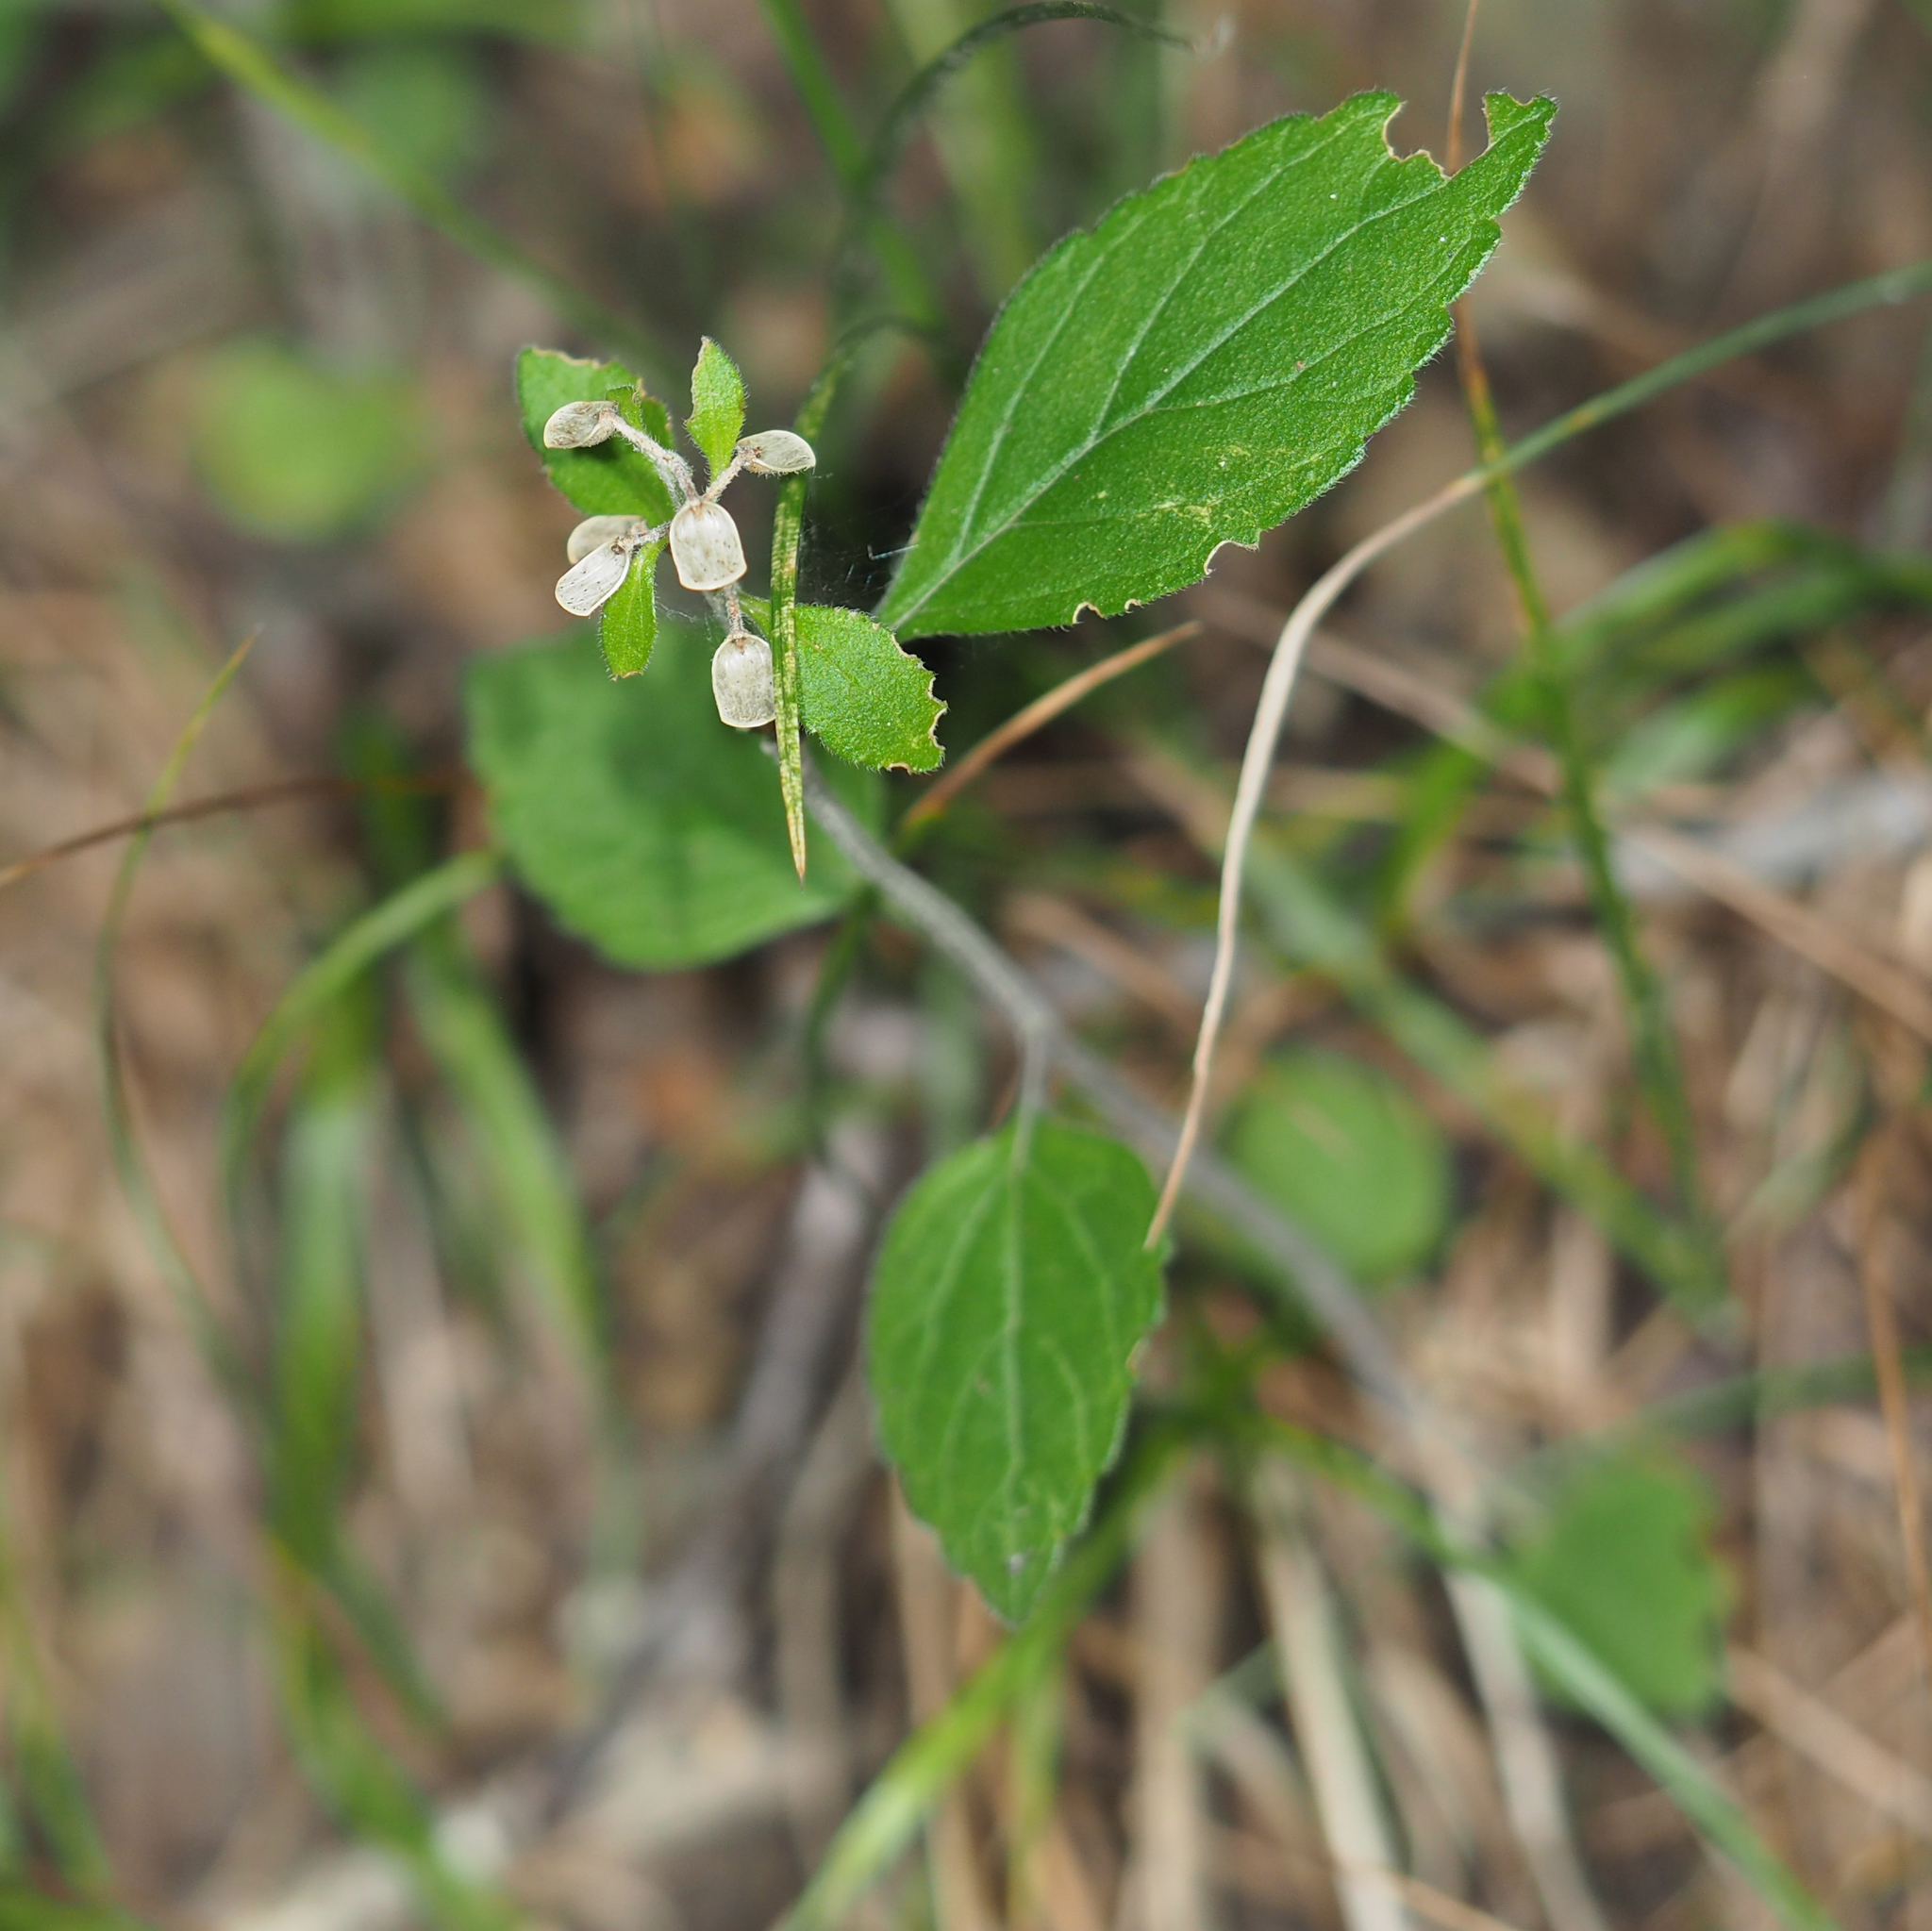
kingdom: Plantae
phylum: Tracheophyta
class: Magnoliopsida
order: Lamiales
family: Lamiaceae
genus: Scutellaria
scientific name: Scutellaria elliptica
